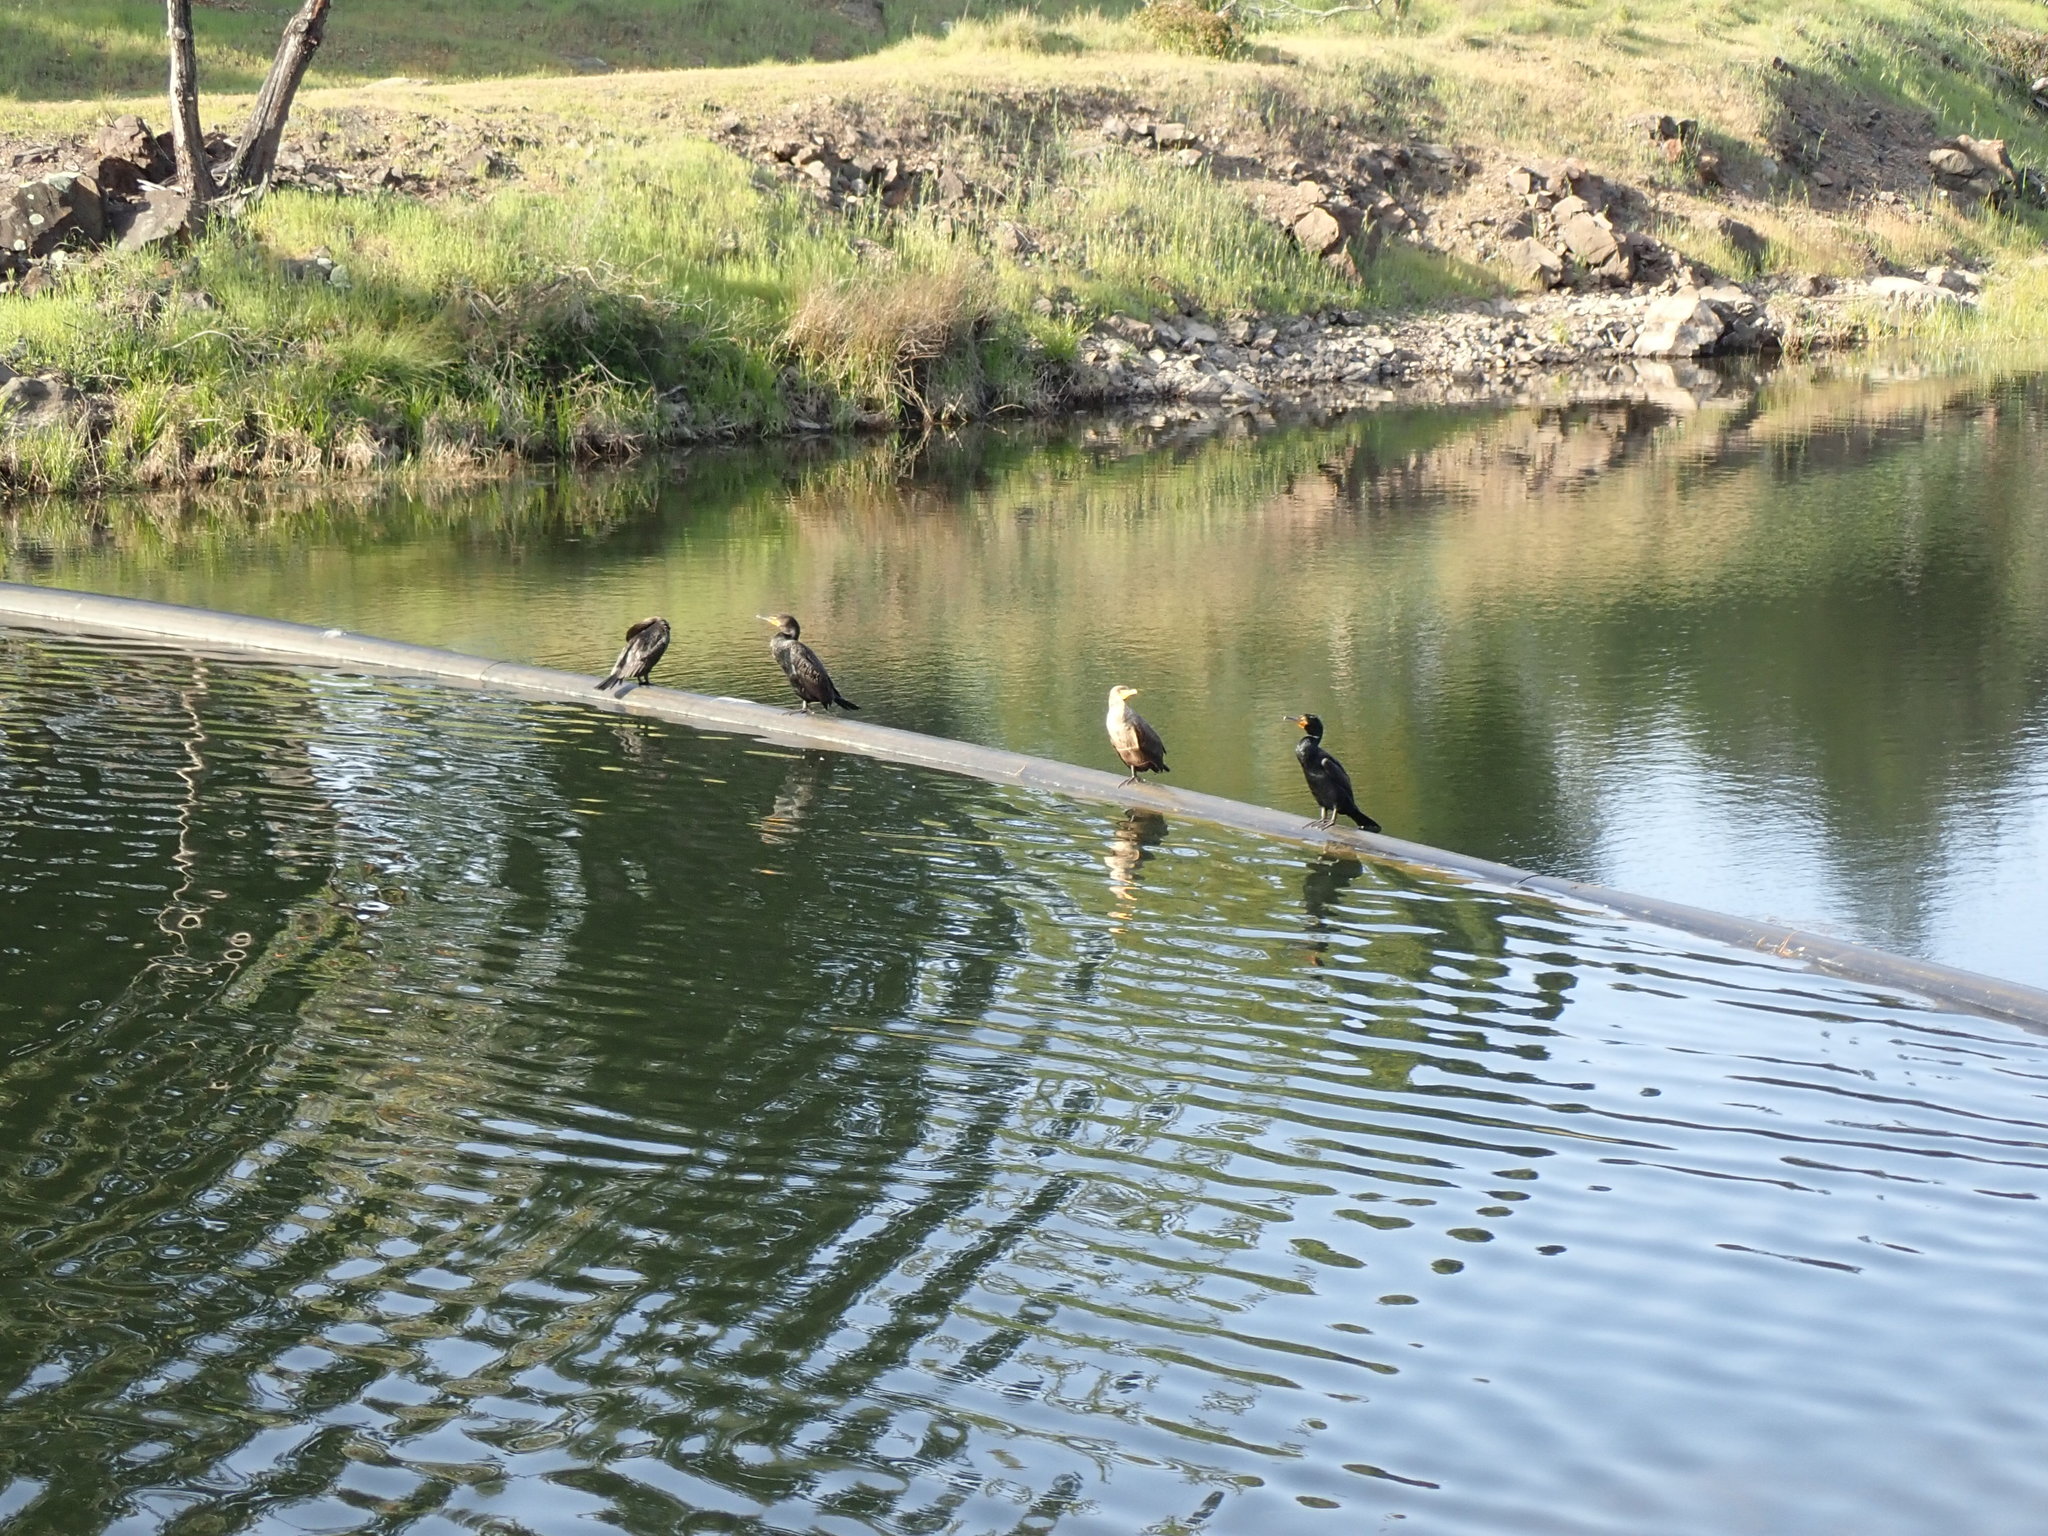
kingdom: Animalia
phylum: Chordata
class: Aves
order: Suliformes
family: Phalacrocoracidae
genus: Phalacrocorax
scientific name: Phalacrocorax auritus
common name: Double-crested cormorant
